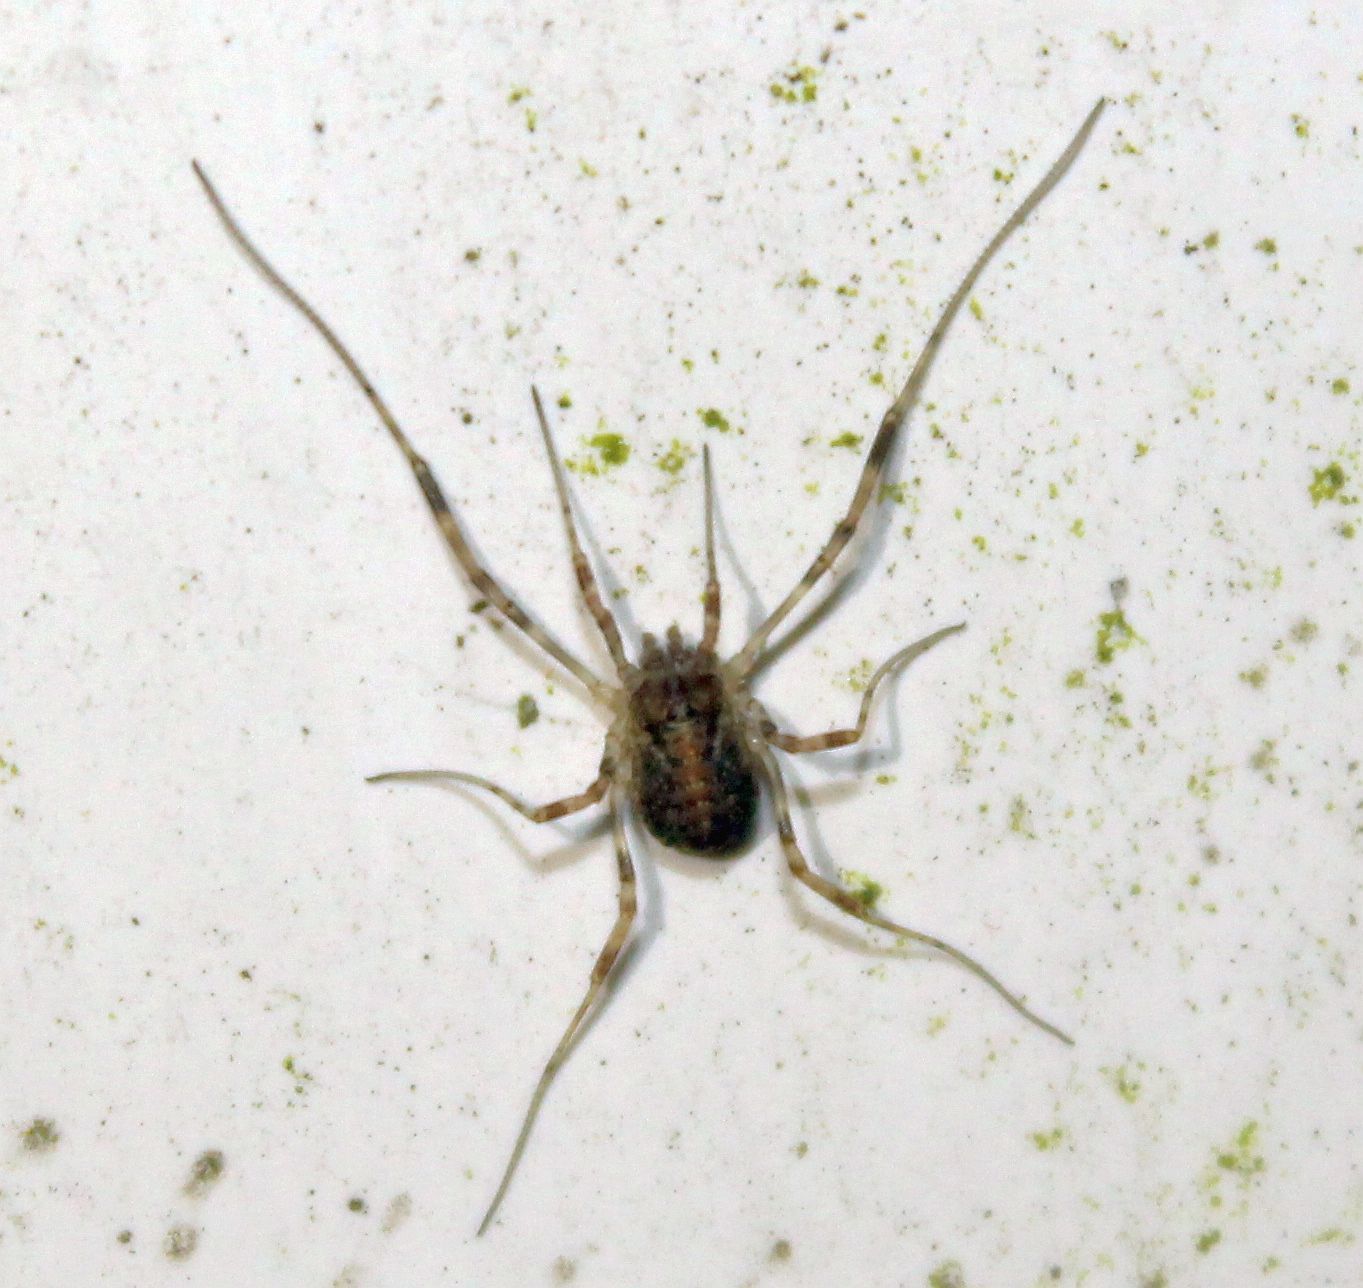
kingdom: Animalia
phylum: Arthropoda
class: Arachnida
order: Opiliones
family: Phalangiidae
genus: Paroligolophus
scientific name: Paroligolophus agrestis
